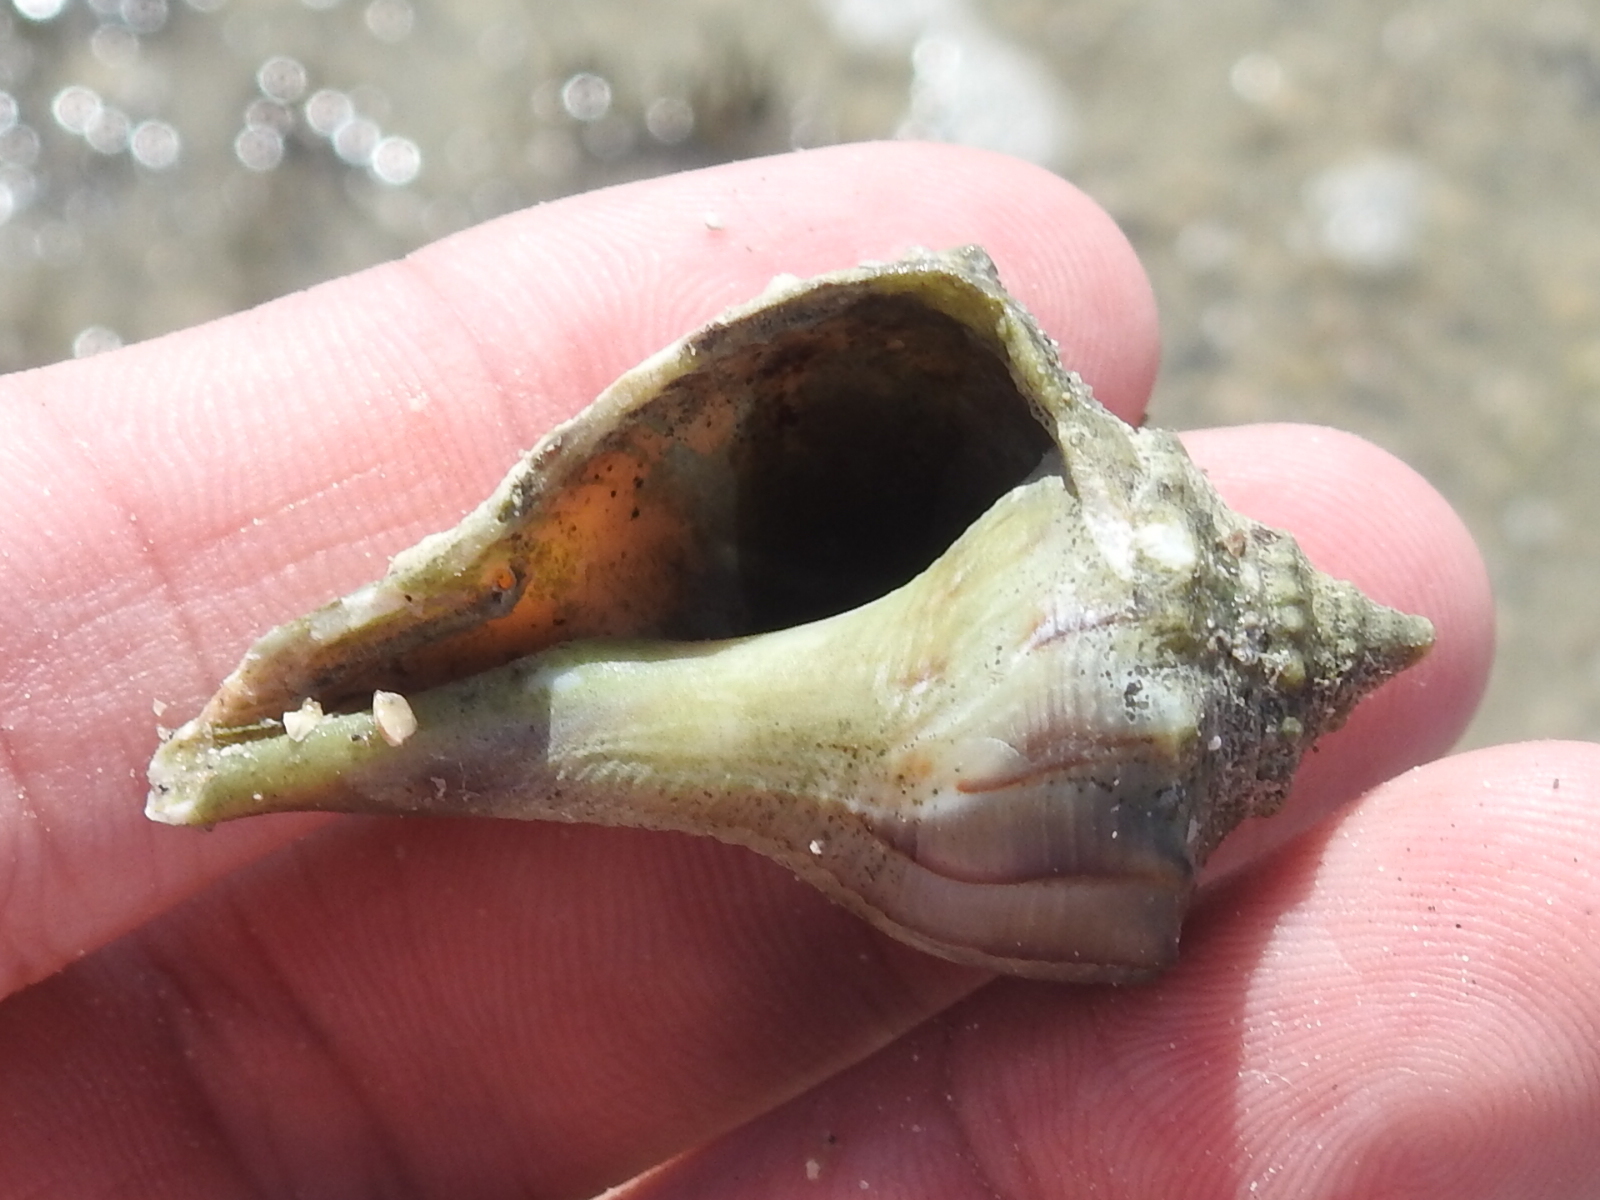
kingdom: Animalia
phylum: Mollusca
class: Gastropoda
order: Neogastropoda
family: Busyconidae
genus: Sinistrofulgur
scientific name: Sinistrofulgur pulleyi
